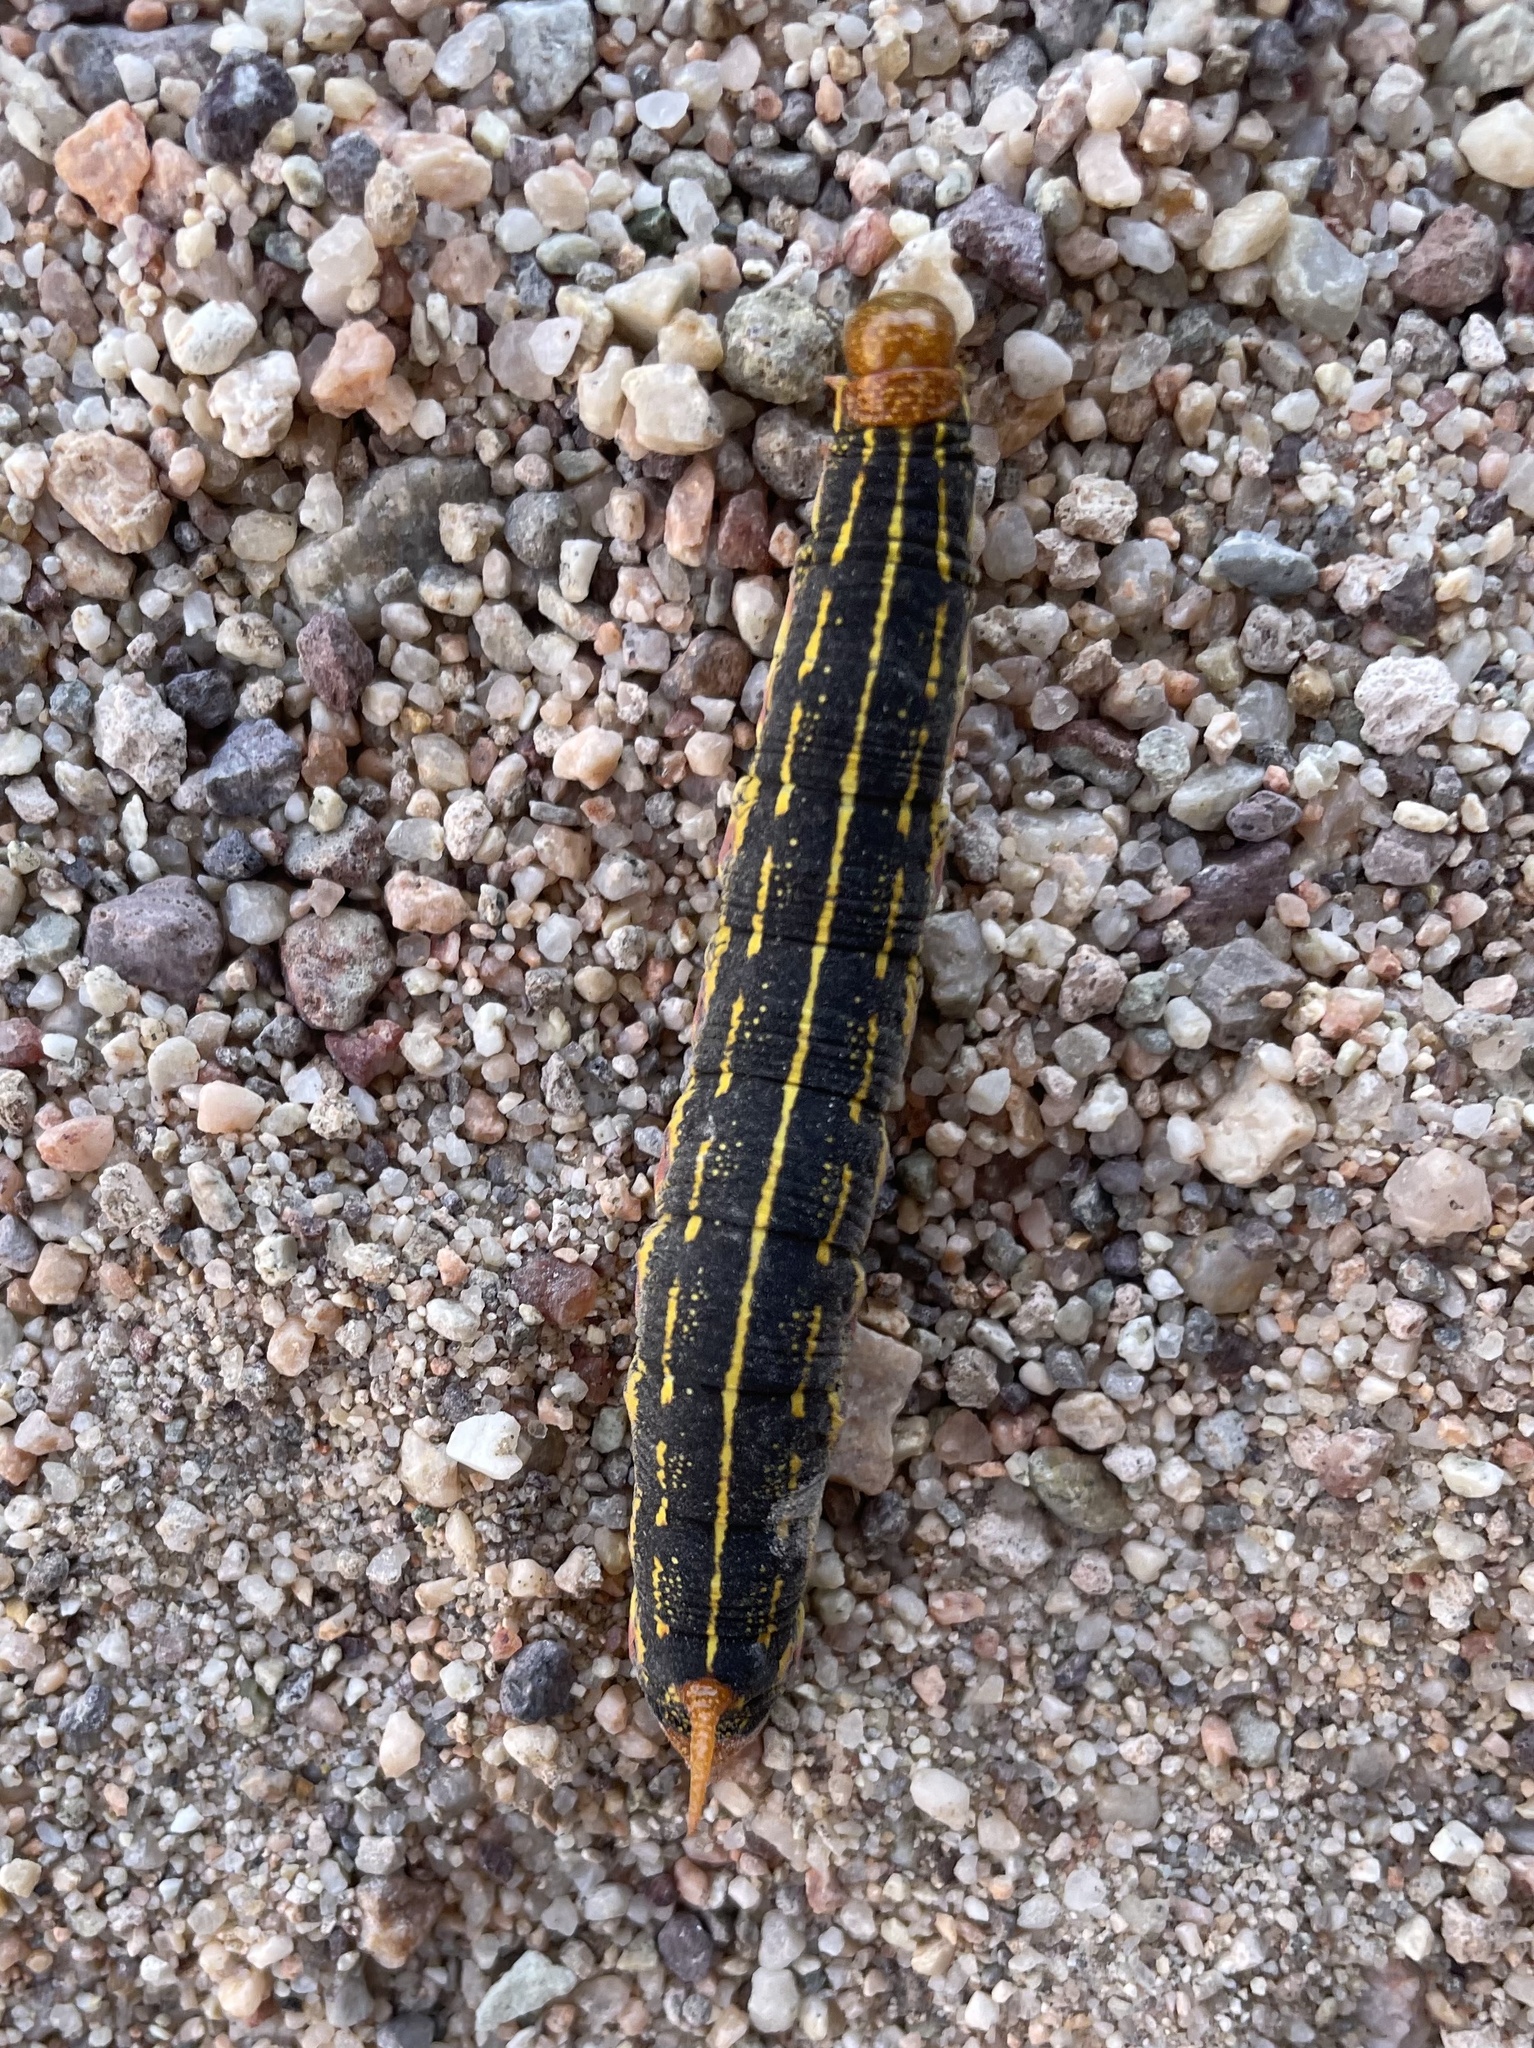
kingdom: Animalia
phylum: Arthropoda
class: Insecta
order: Lepidoptera
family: Sphingidae
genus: Hyles
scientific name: Hyles lineata
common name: White-lined sphinx
